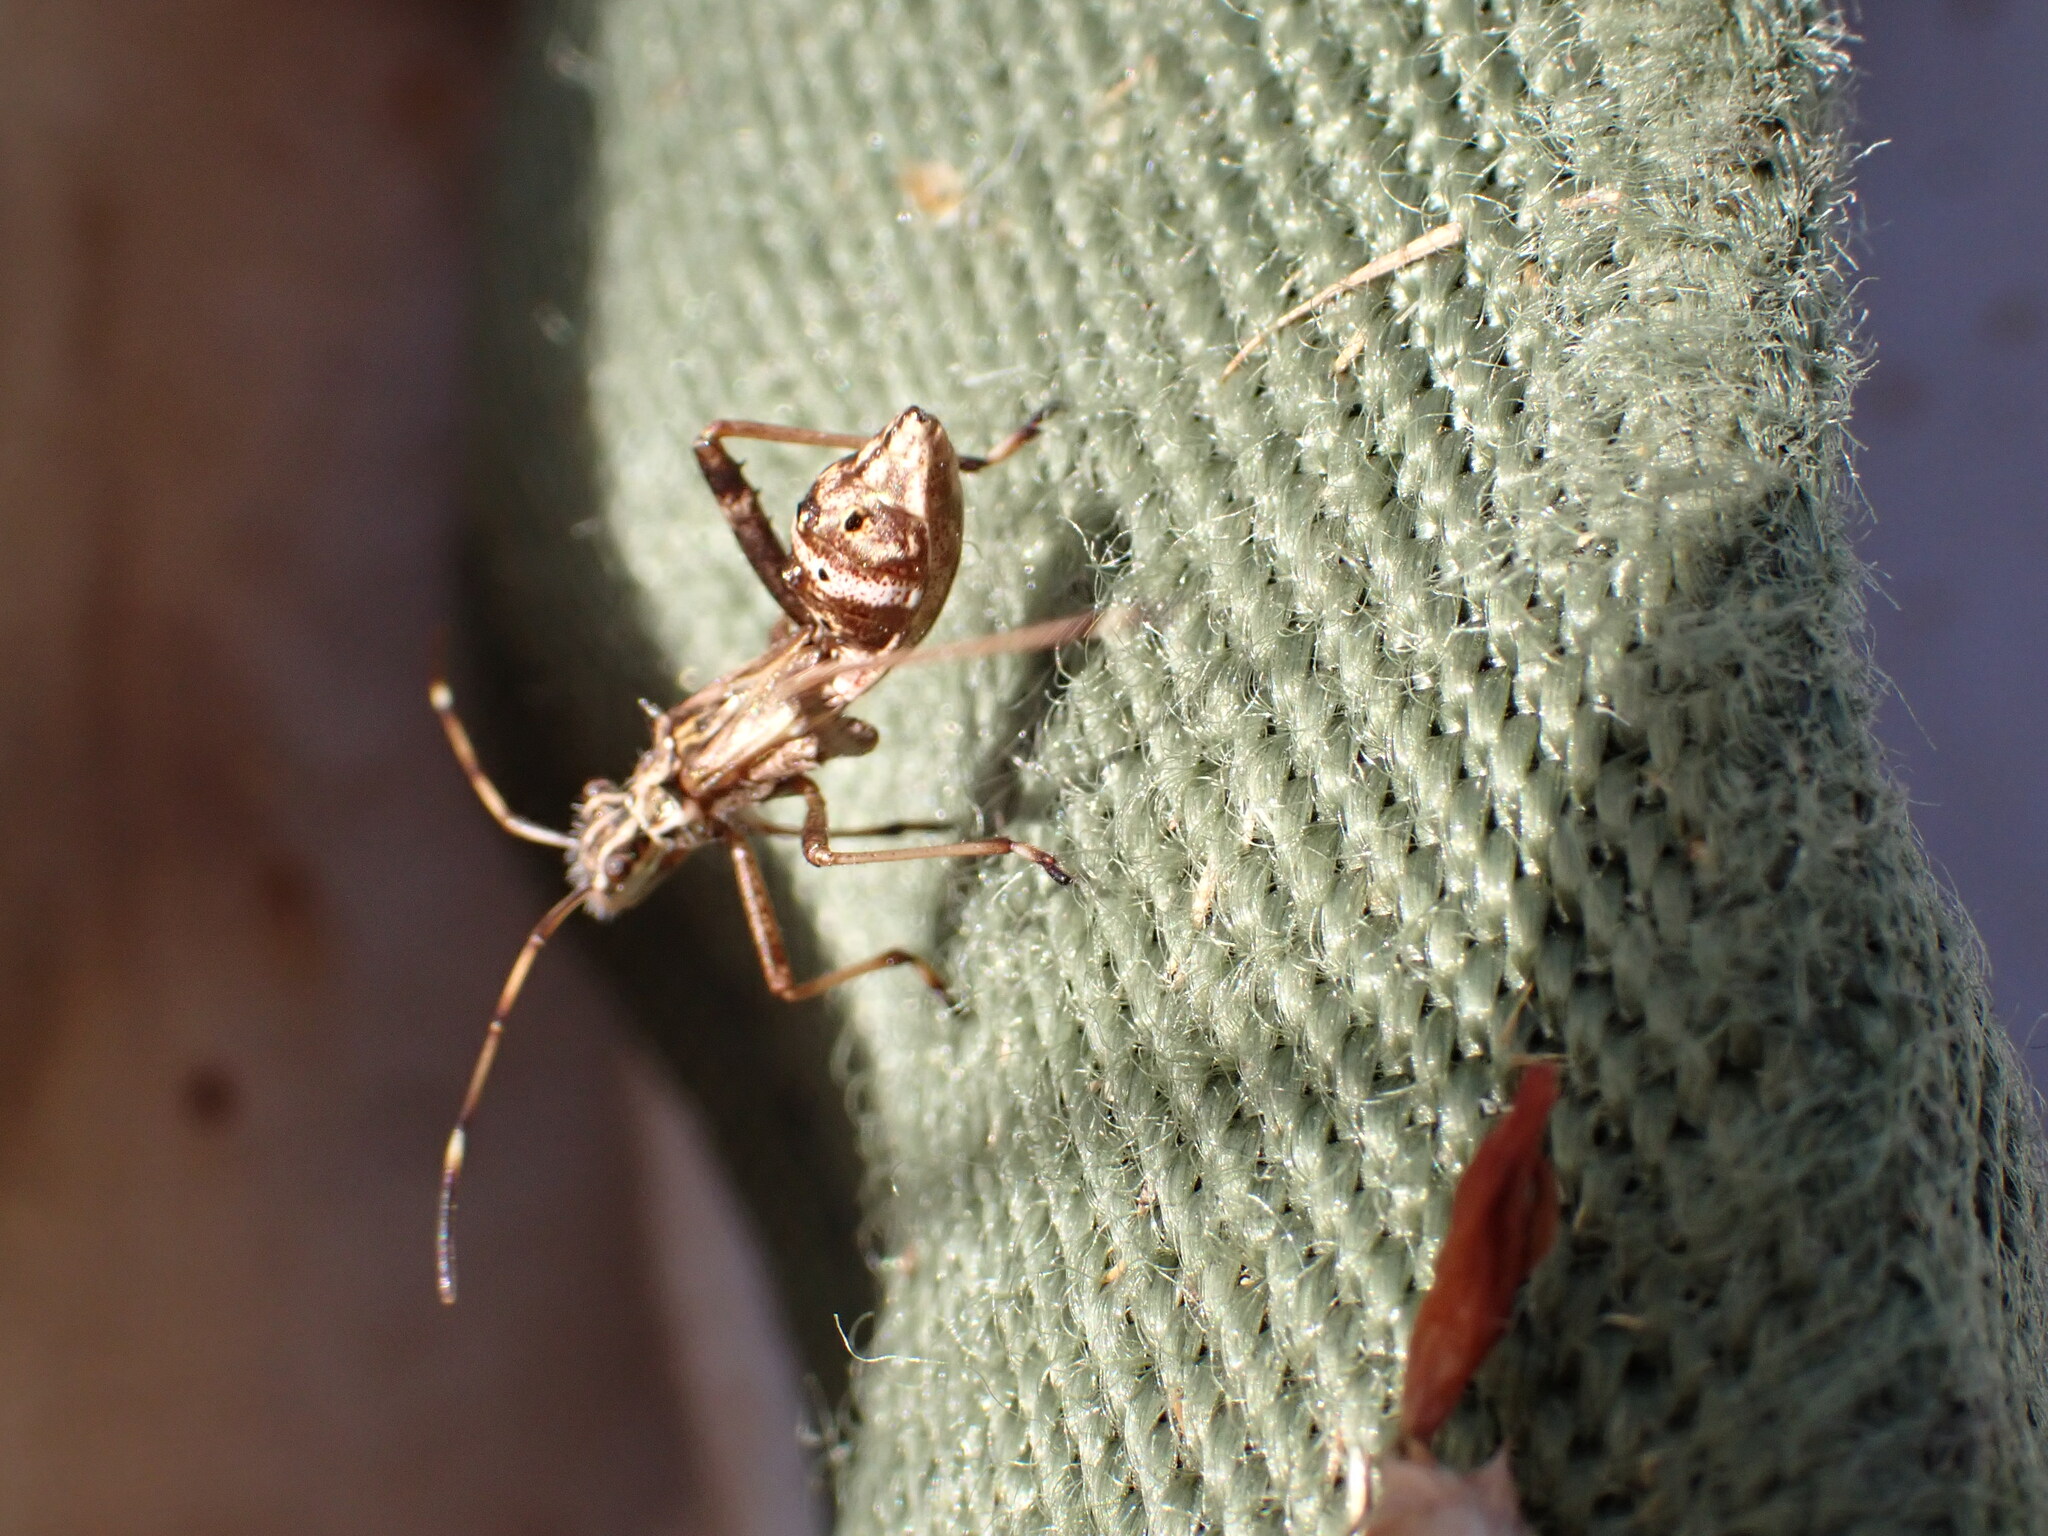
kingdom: Animalia
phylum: Arthropoda
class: Insecta
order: Hemiptera
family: Alydidae
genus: Camptopus
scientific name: Camptopus lateralis
